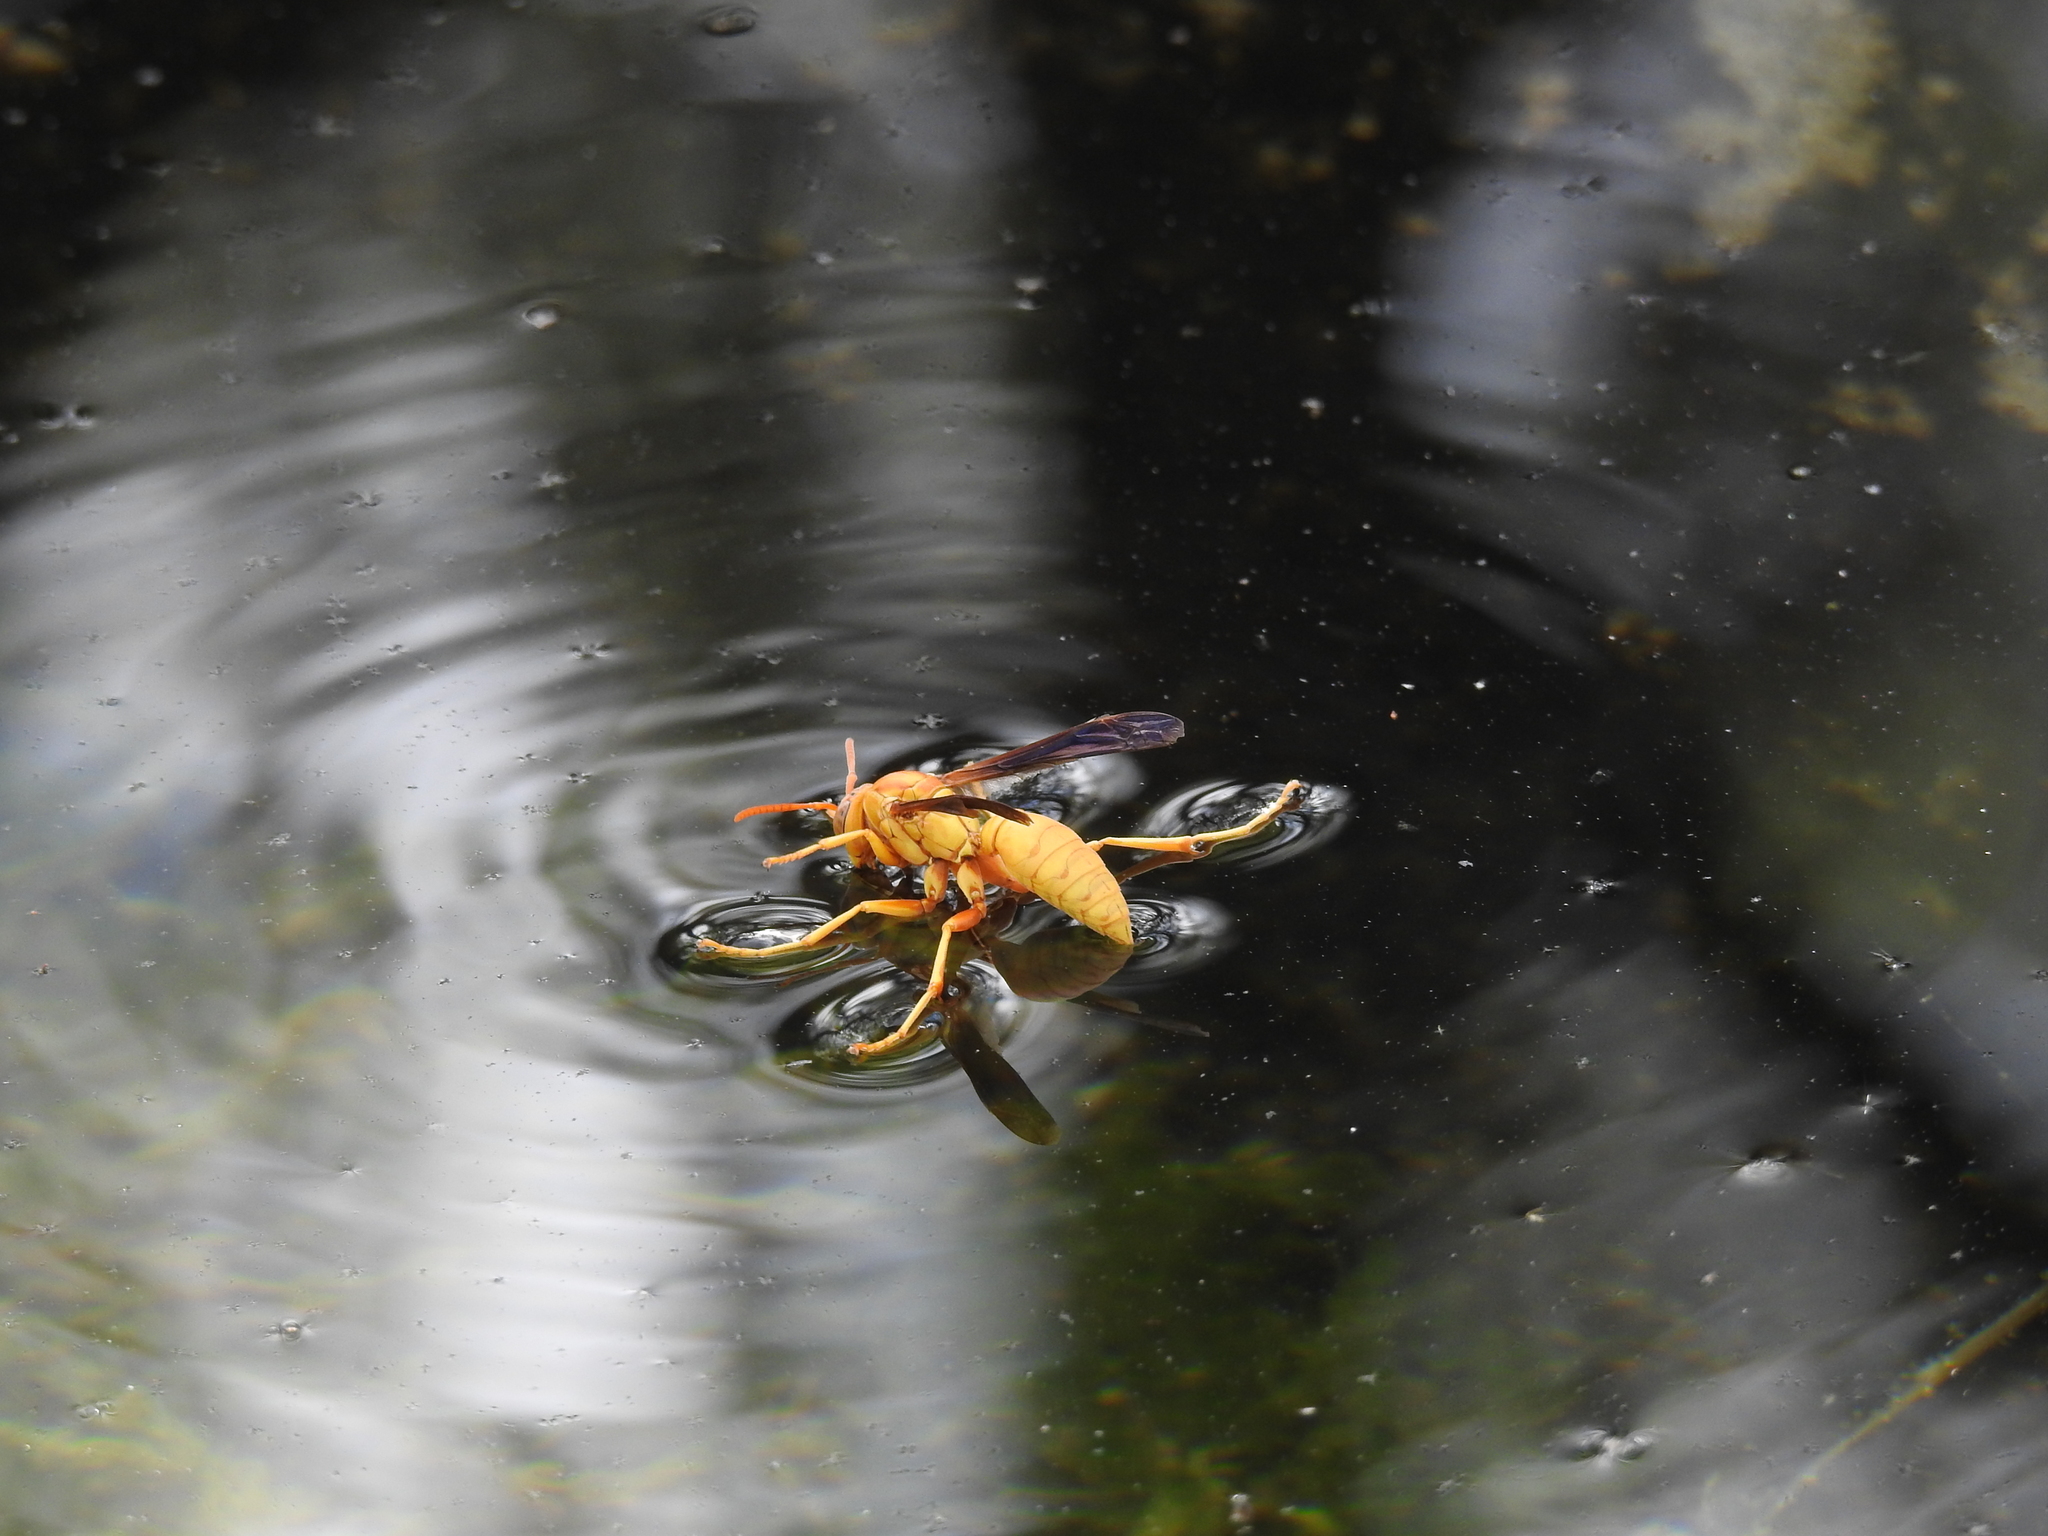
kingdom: Animalia
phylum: Arthropoda
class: Insecta
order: Hymenoptera
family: Eumenidae
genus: Polistes
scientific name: Polistes flavus
